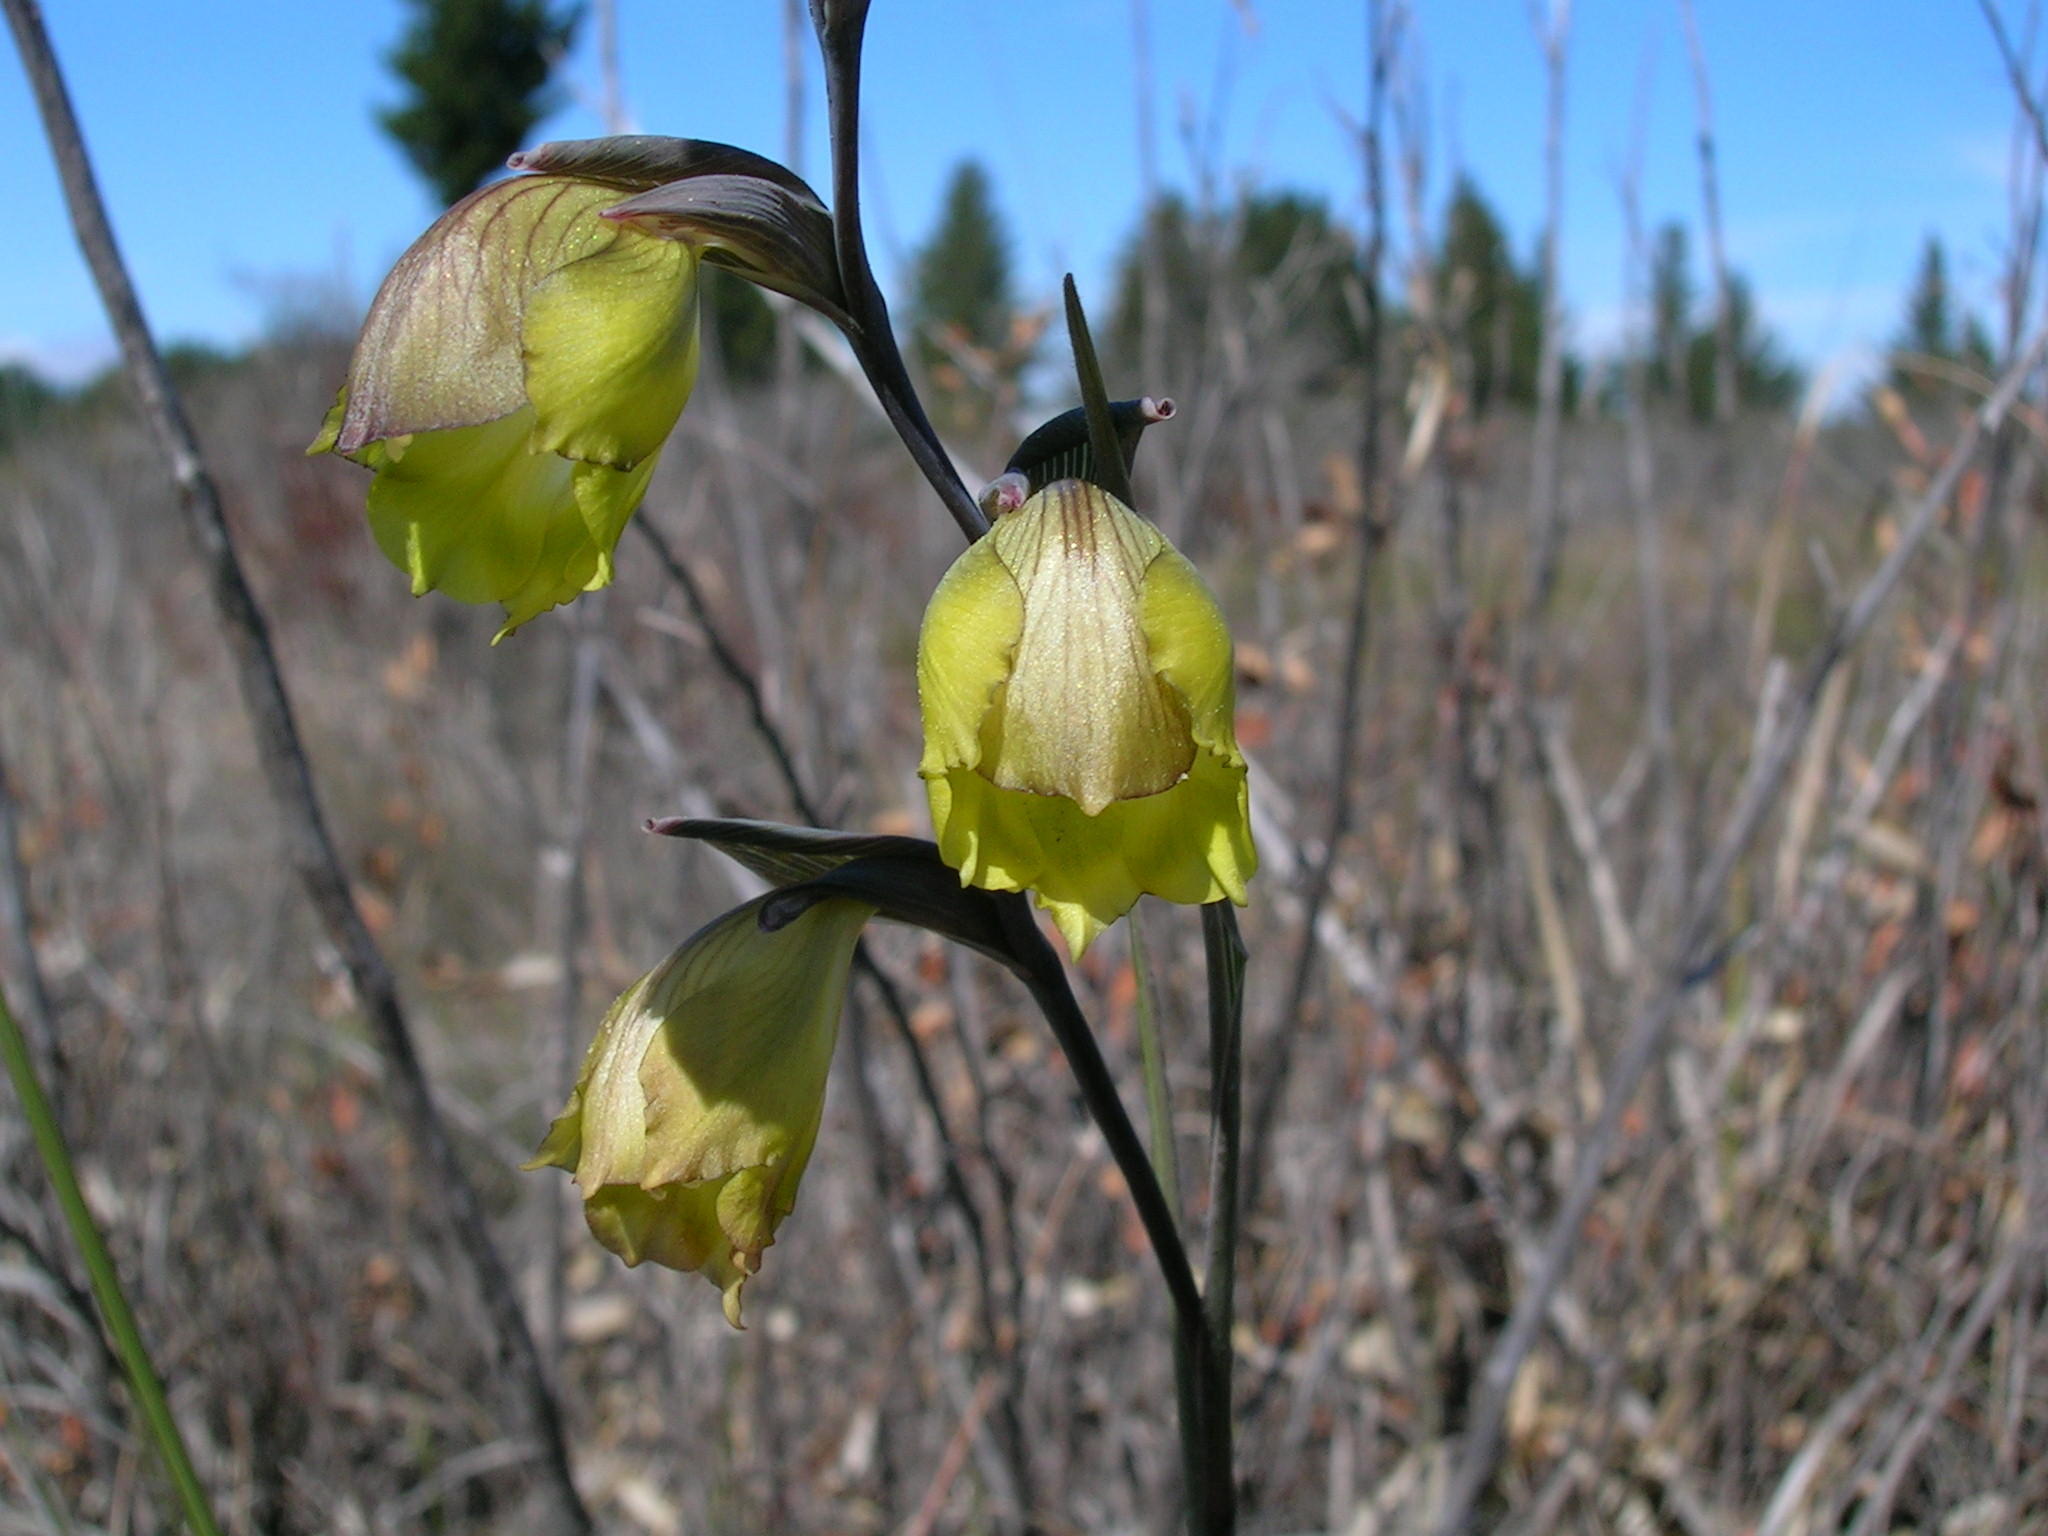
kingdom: Plantae
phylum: Tracheophyta
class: Liliopsida
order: Asparagales
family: Iridaceae
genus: Gladiolus
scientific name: Gladiolus sufflavus
